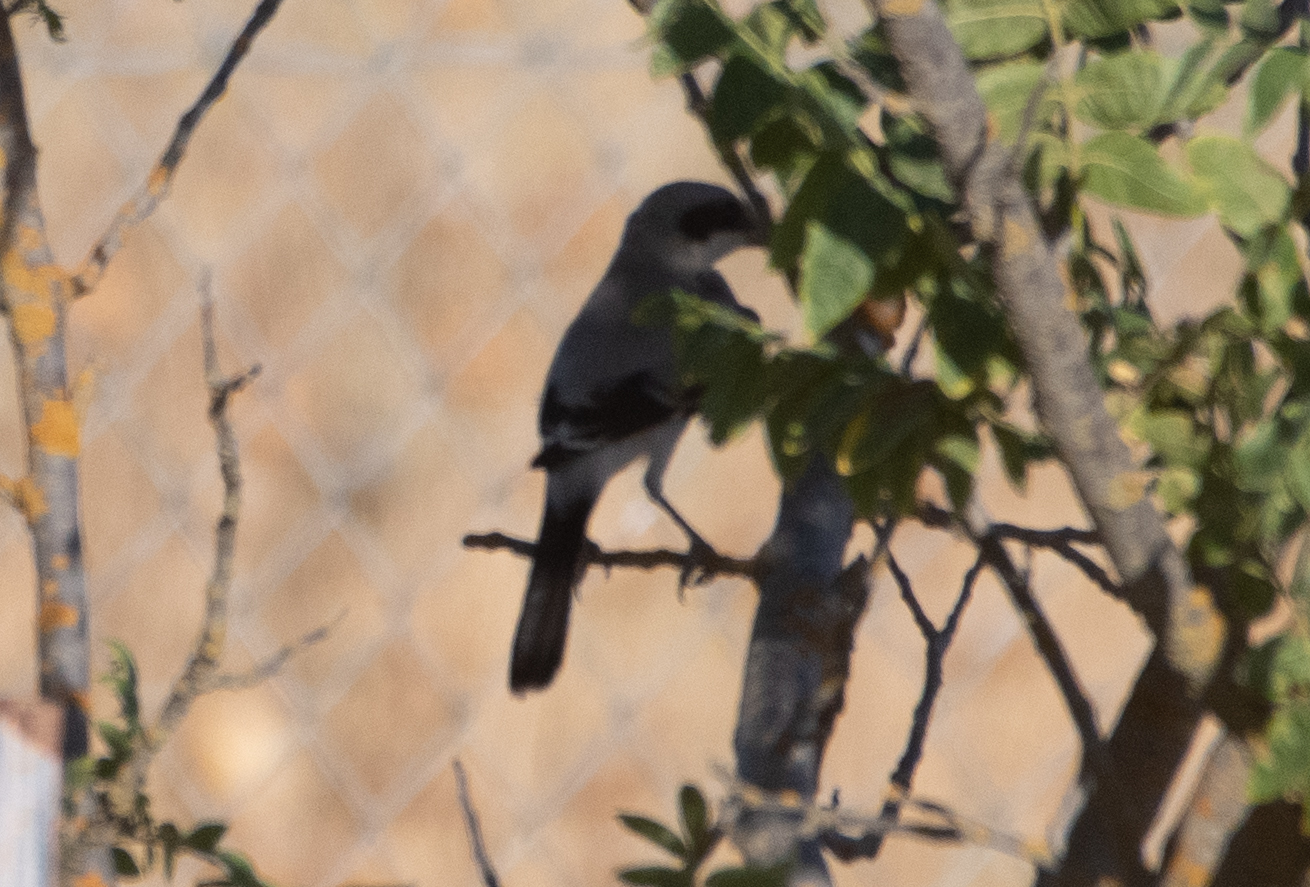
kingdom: Animalia
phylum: Chordata
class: Aves
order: Passeriformes
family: Laniidae
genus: Lanius
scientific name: Lanius ludovicianus
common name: Loggerhead shrike
